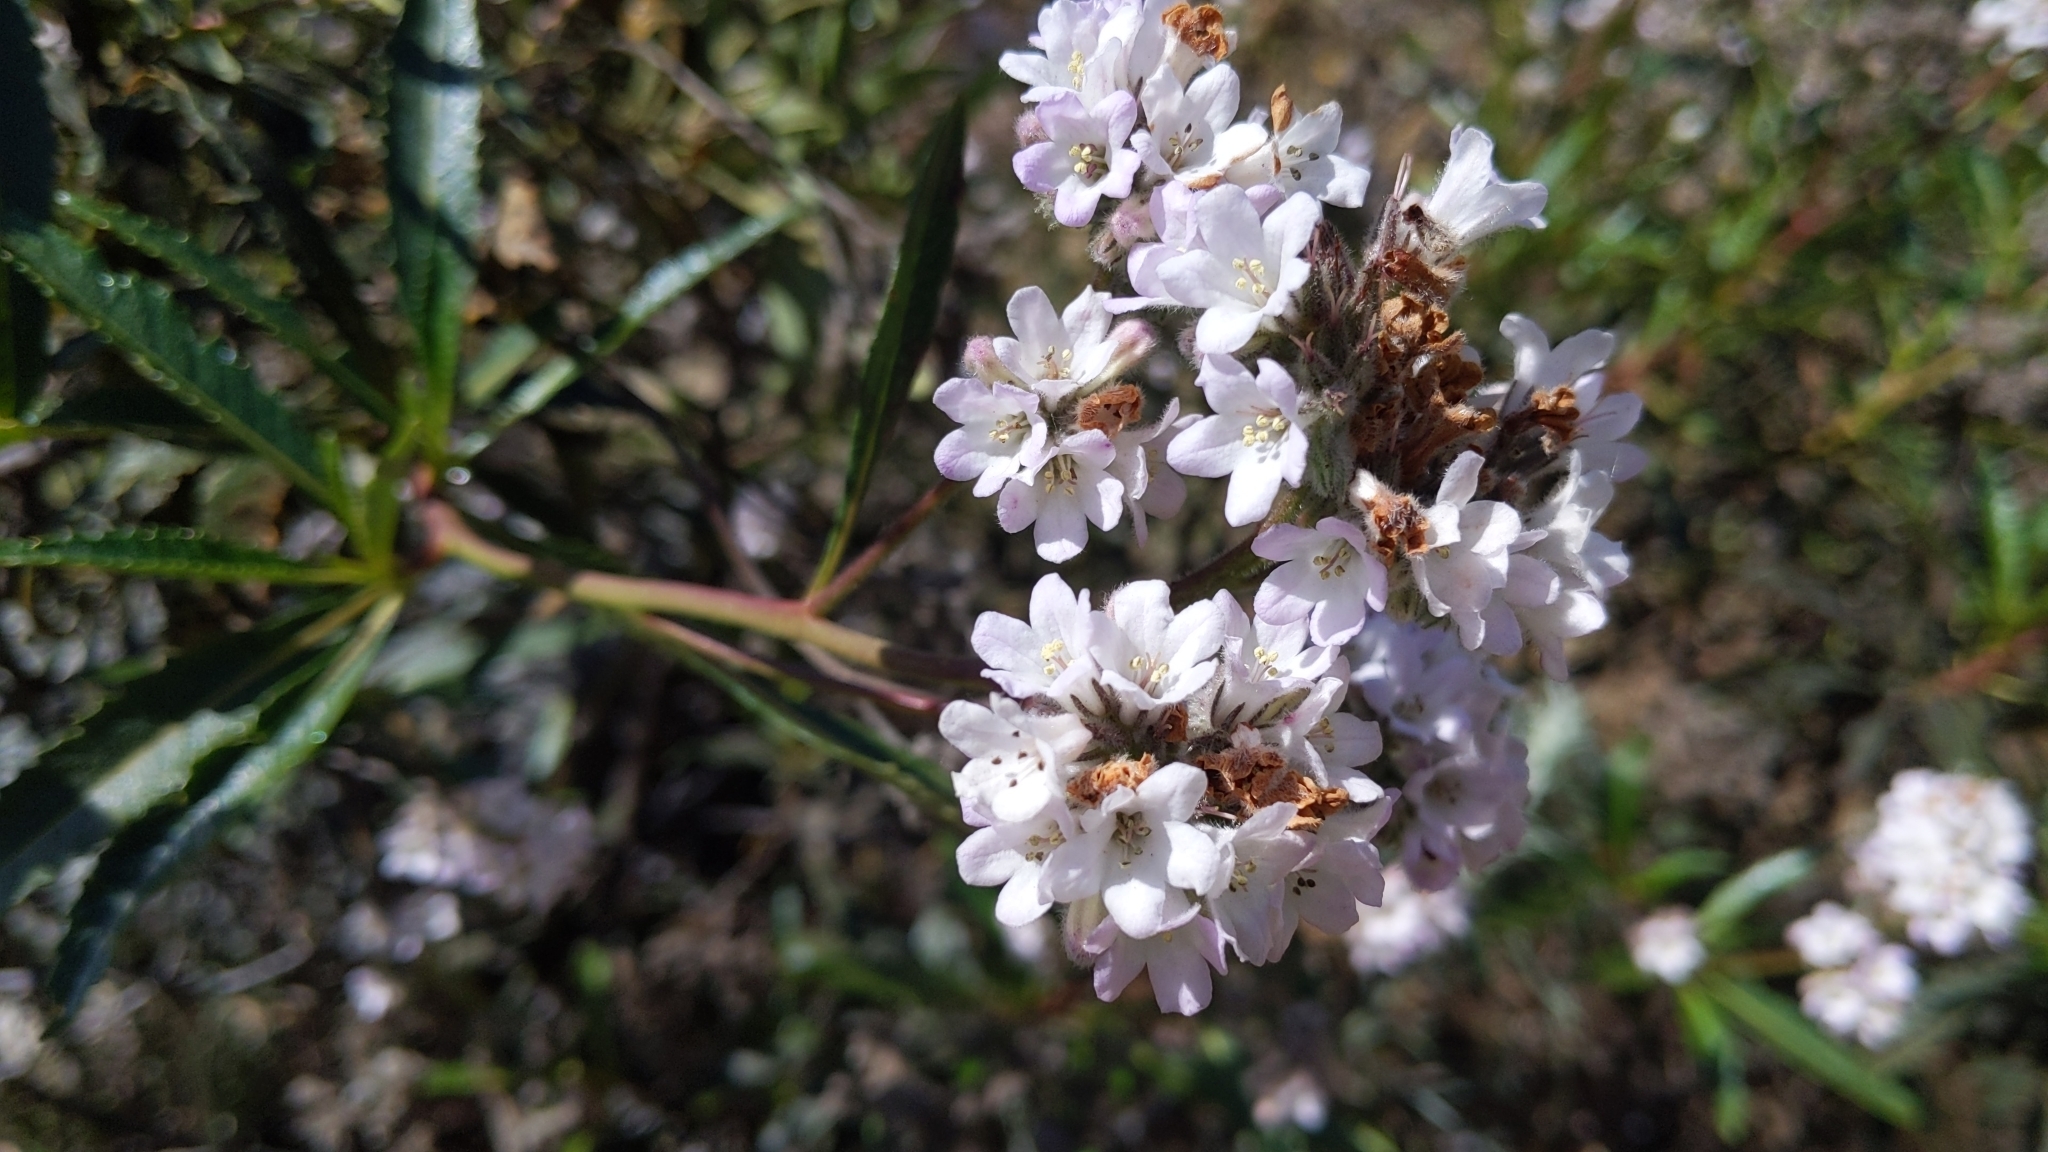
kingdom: Plantae
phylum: Tracheophyta
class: Magnoliopsida
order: Boraginales
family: Namaceae
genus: Eriodictyon
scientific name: Eriodictyon trichocalyx
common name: Hairy yerba-santa
